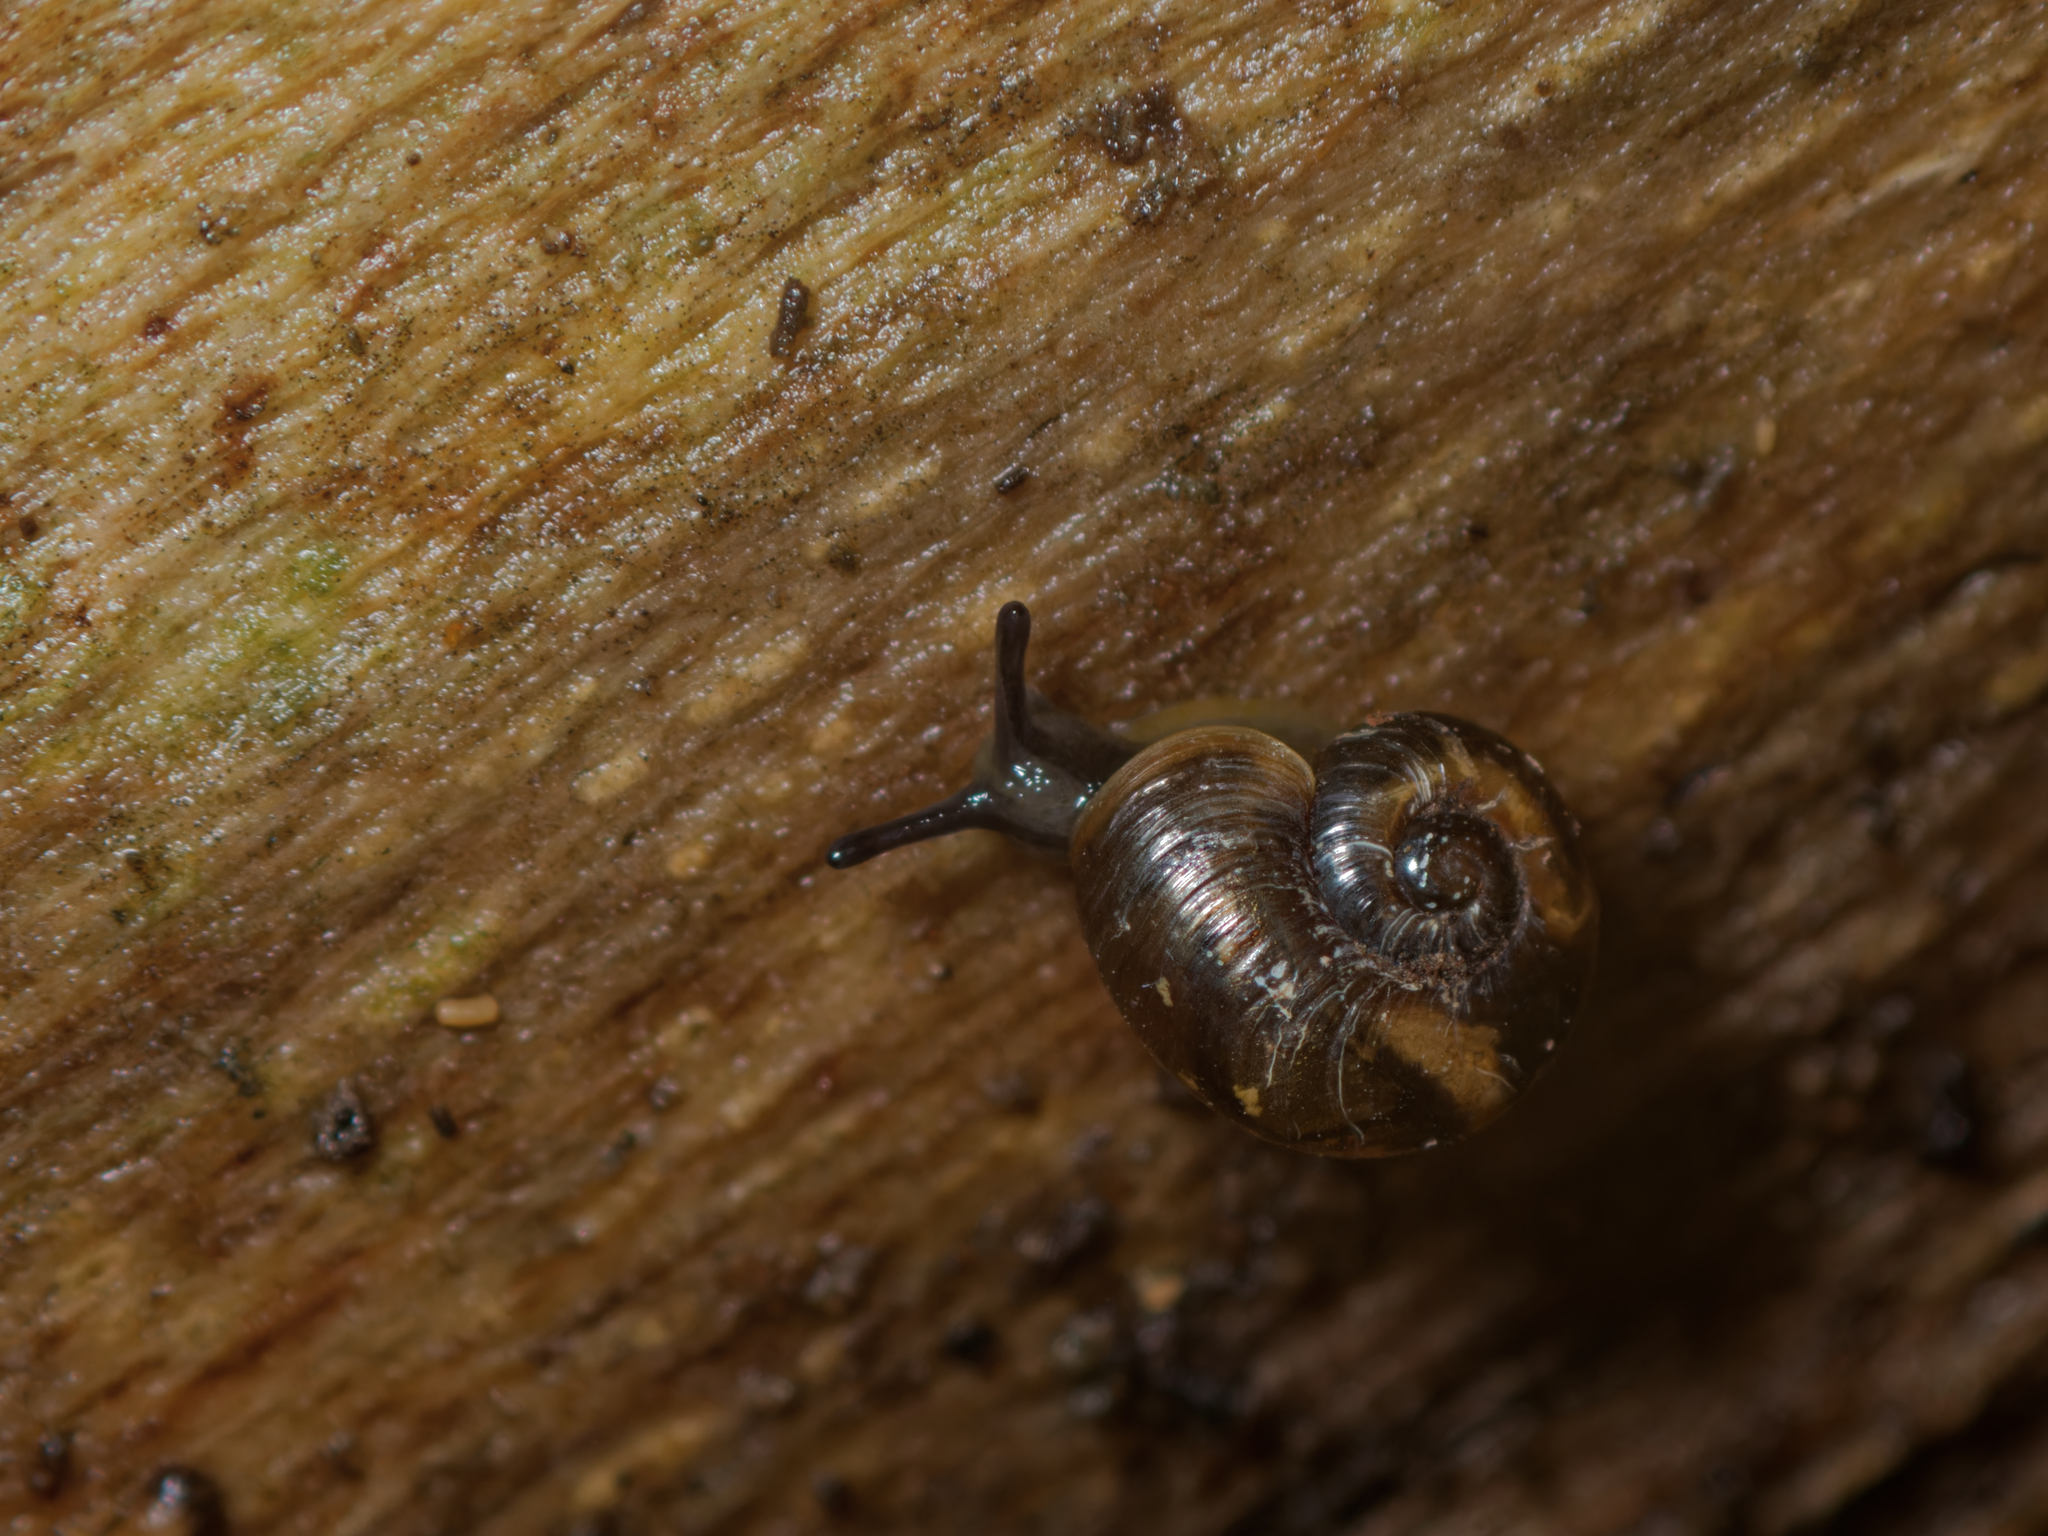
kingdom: Animalia
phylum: Mollusca
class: Gastropoda
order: Stylommatophora
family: Charopidae
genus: Flammulina
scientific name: Flammulina perdita
